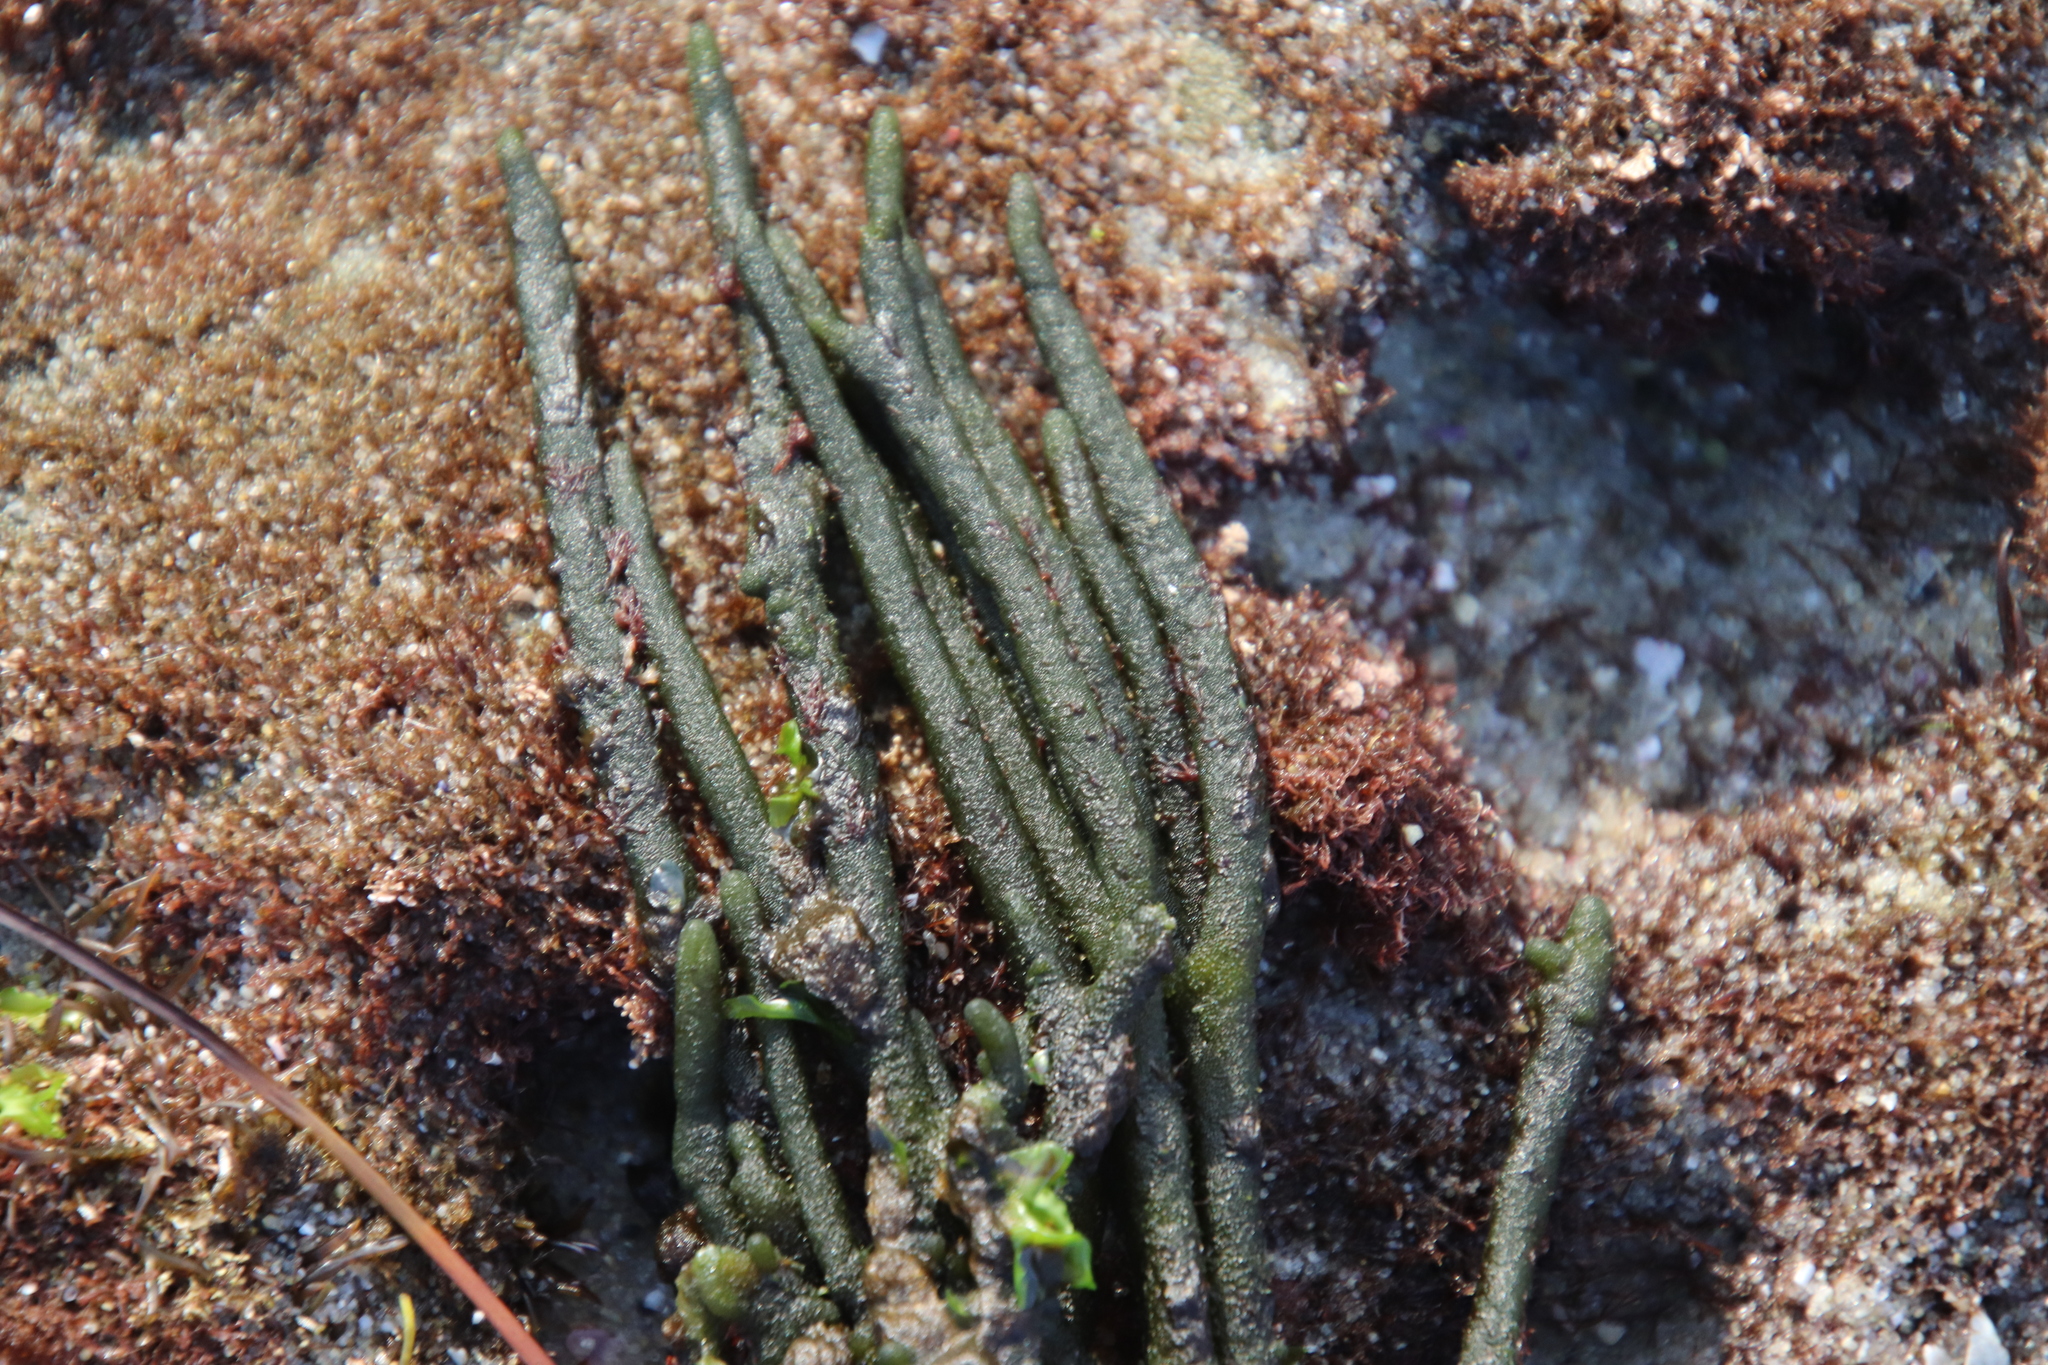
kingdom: Plantae
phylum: Chlorophyta
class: Ulvophyceae
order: Bryopsidales
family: Codiaceae
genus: Codium
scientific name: Codium fragile
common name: Dead man's fingers
